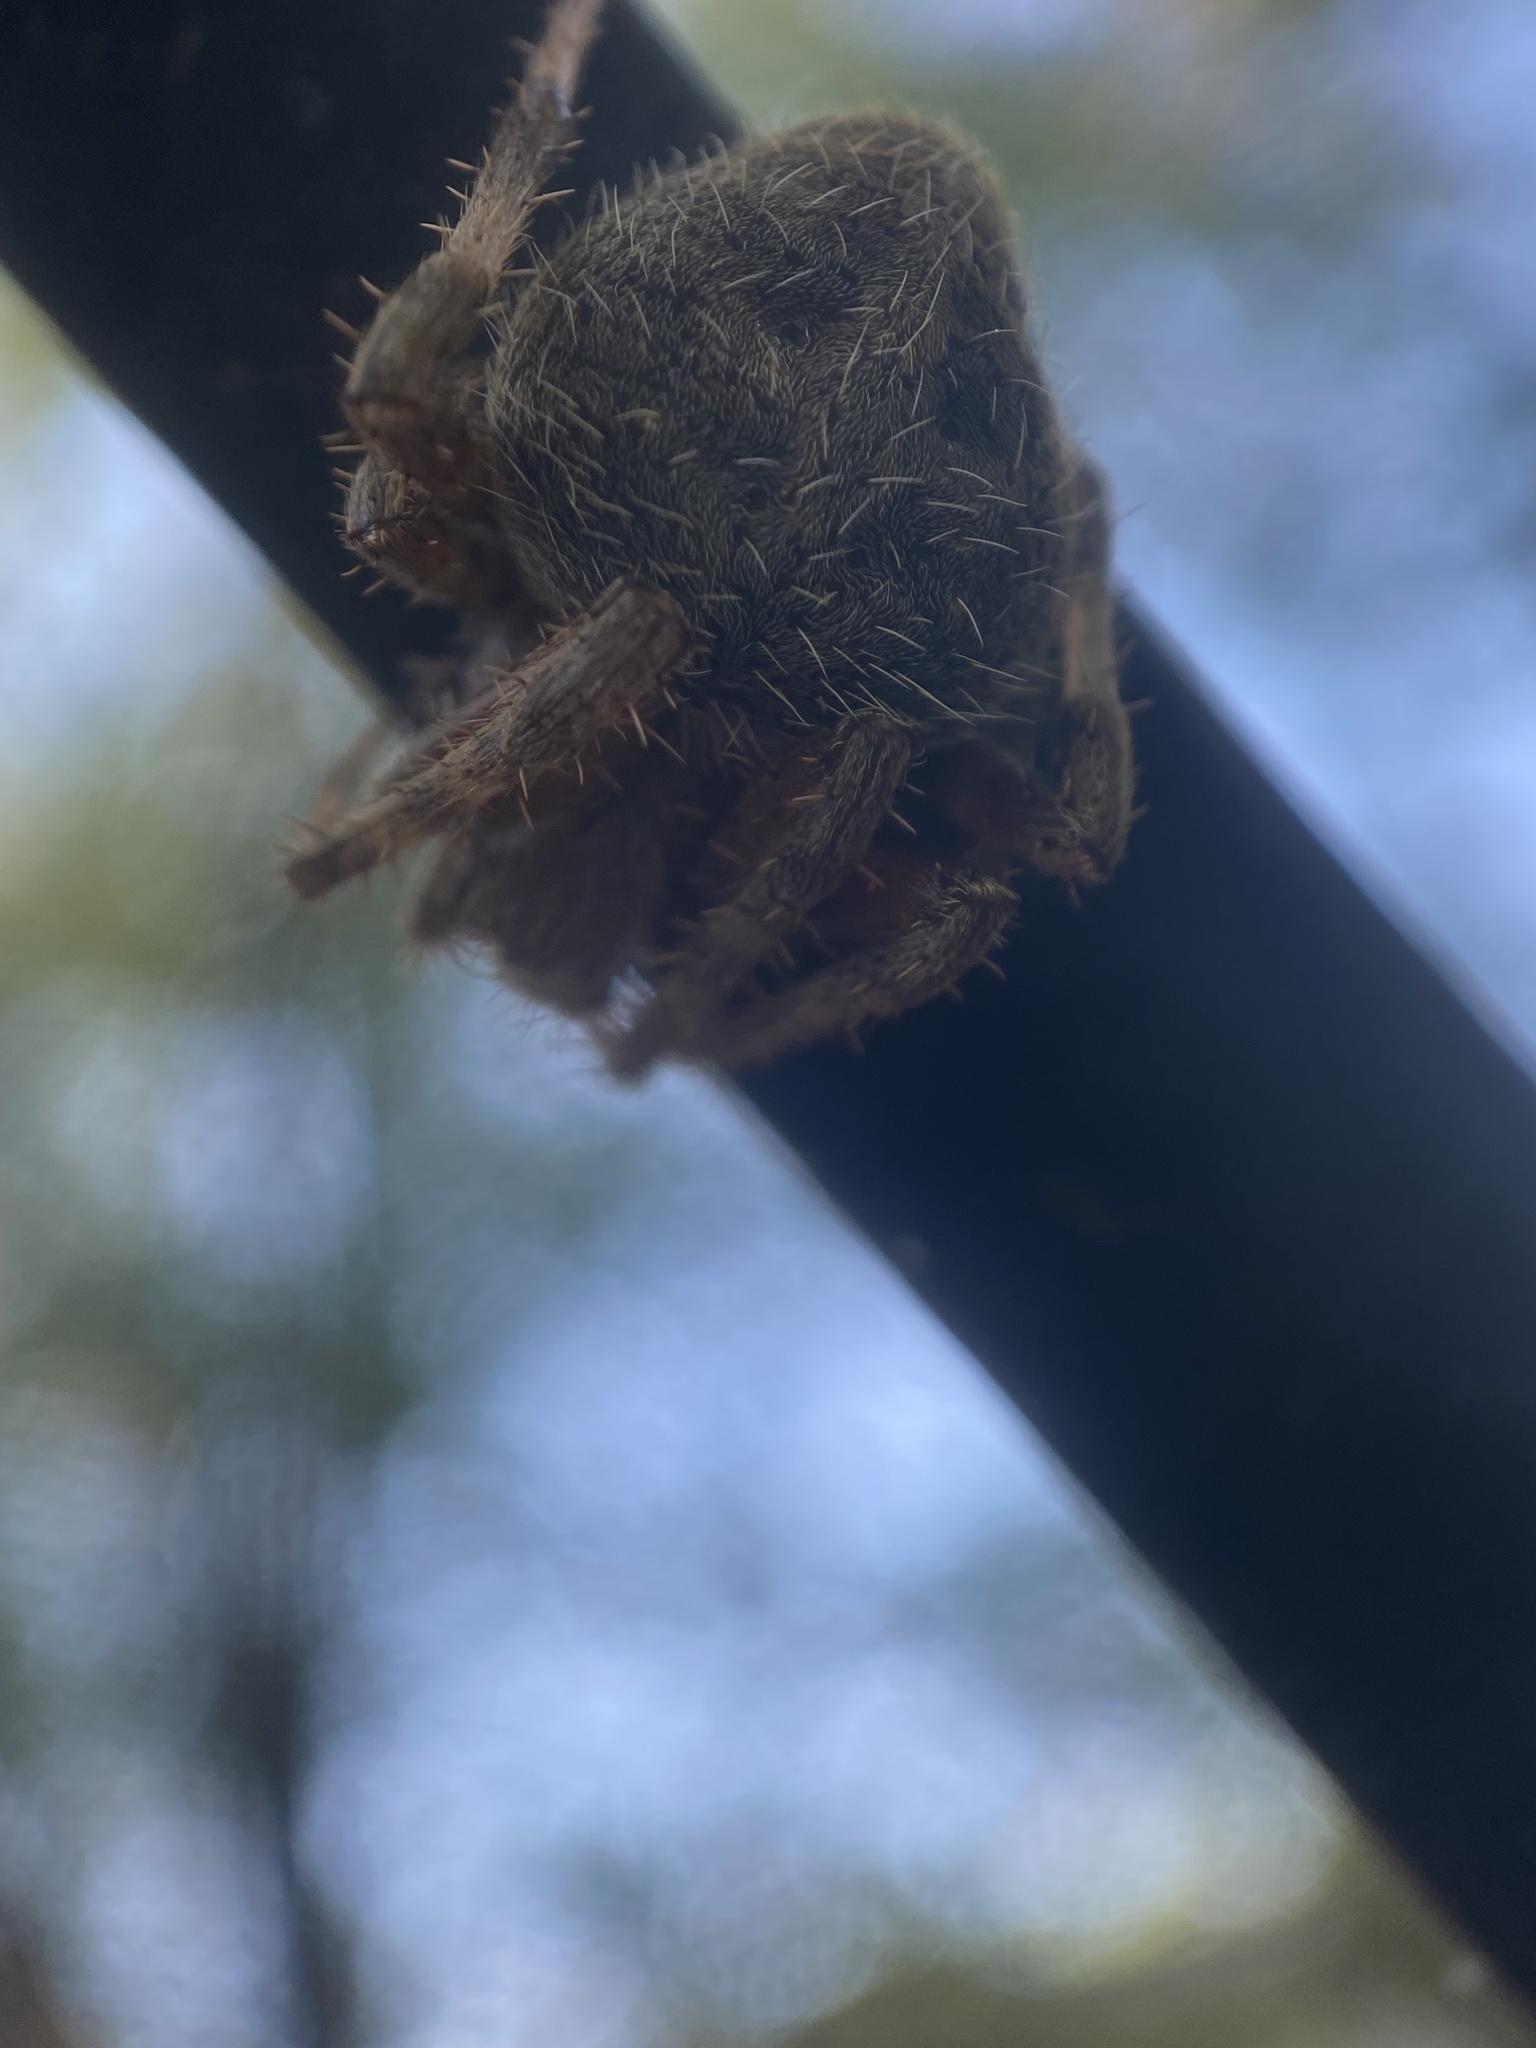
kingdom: Animalia
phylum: Arthropoda
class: Arachnida
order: Araneae
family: Araneidae
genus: Neoscona
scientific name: Neoscona crucifera
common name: Spotted orbweaver
